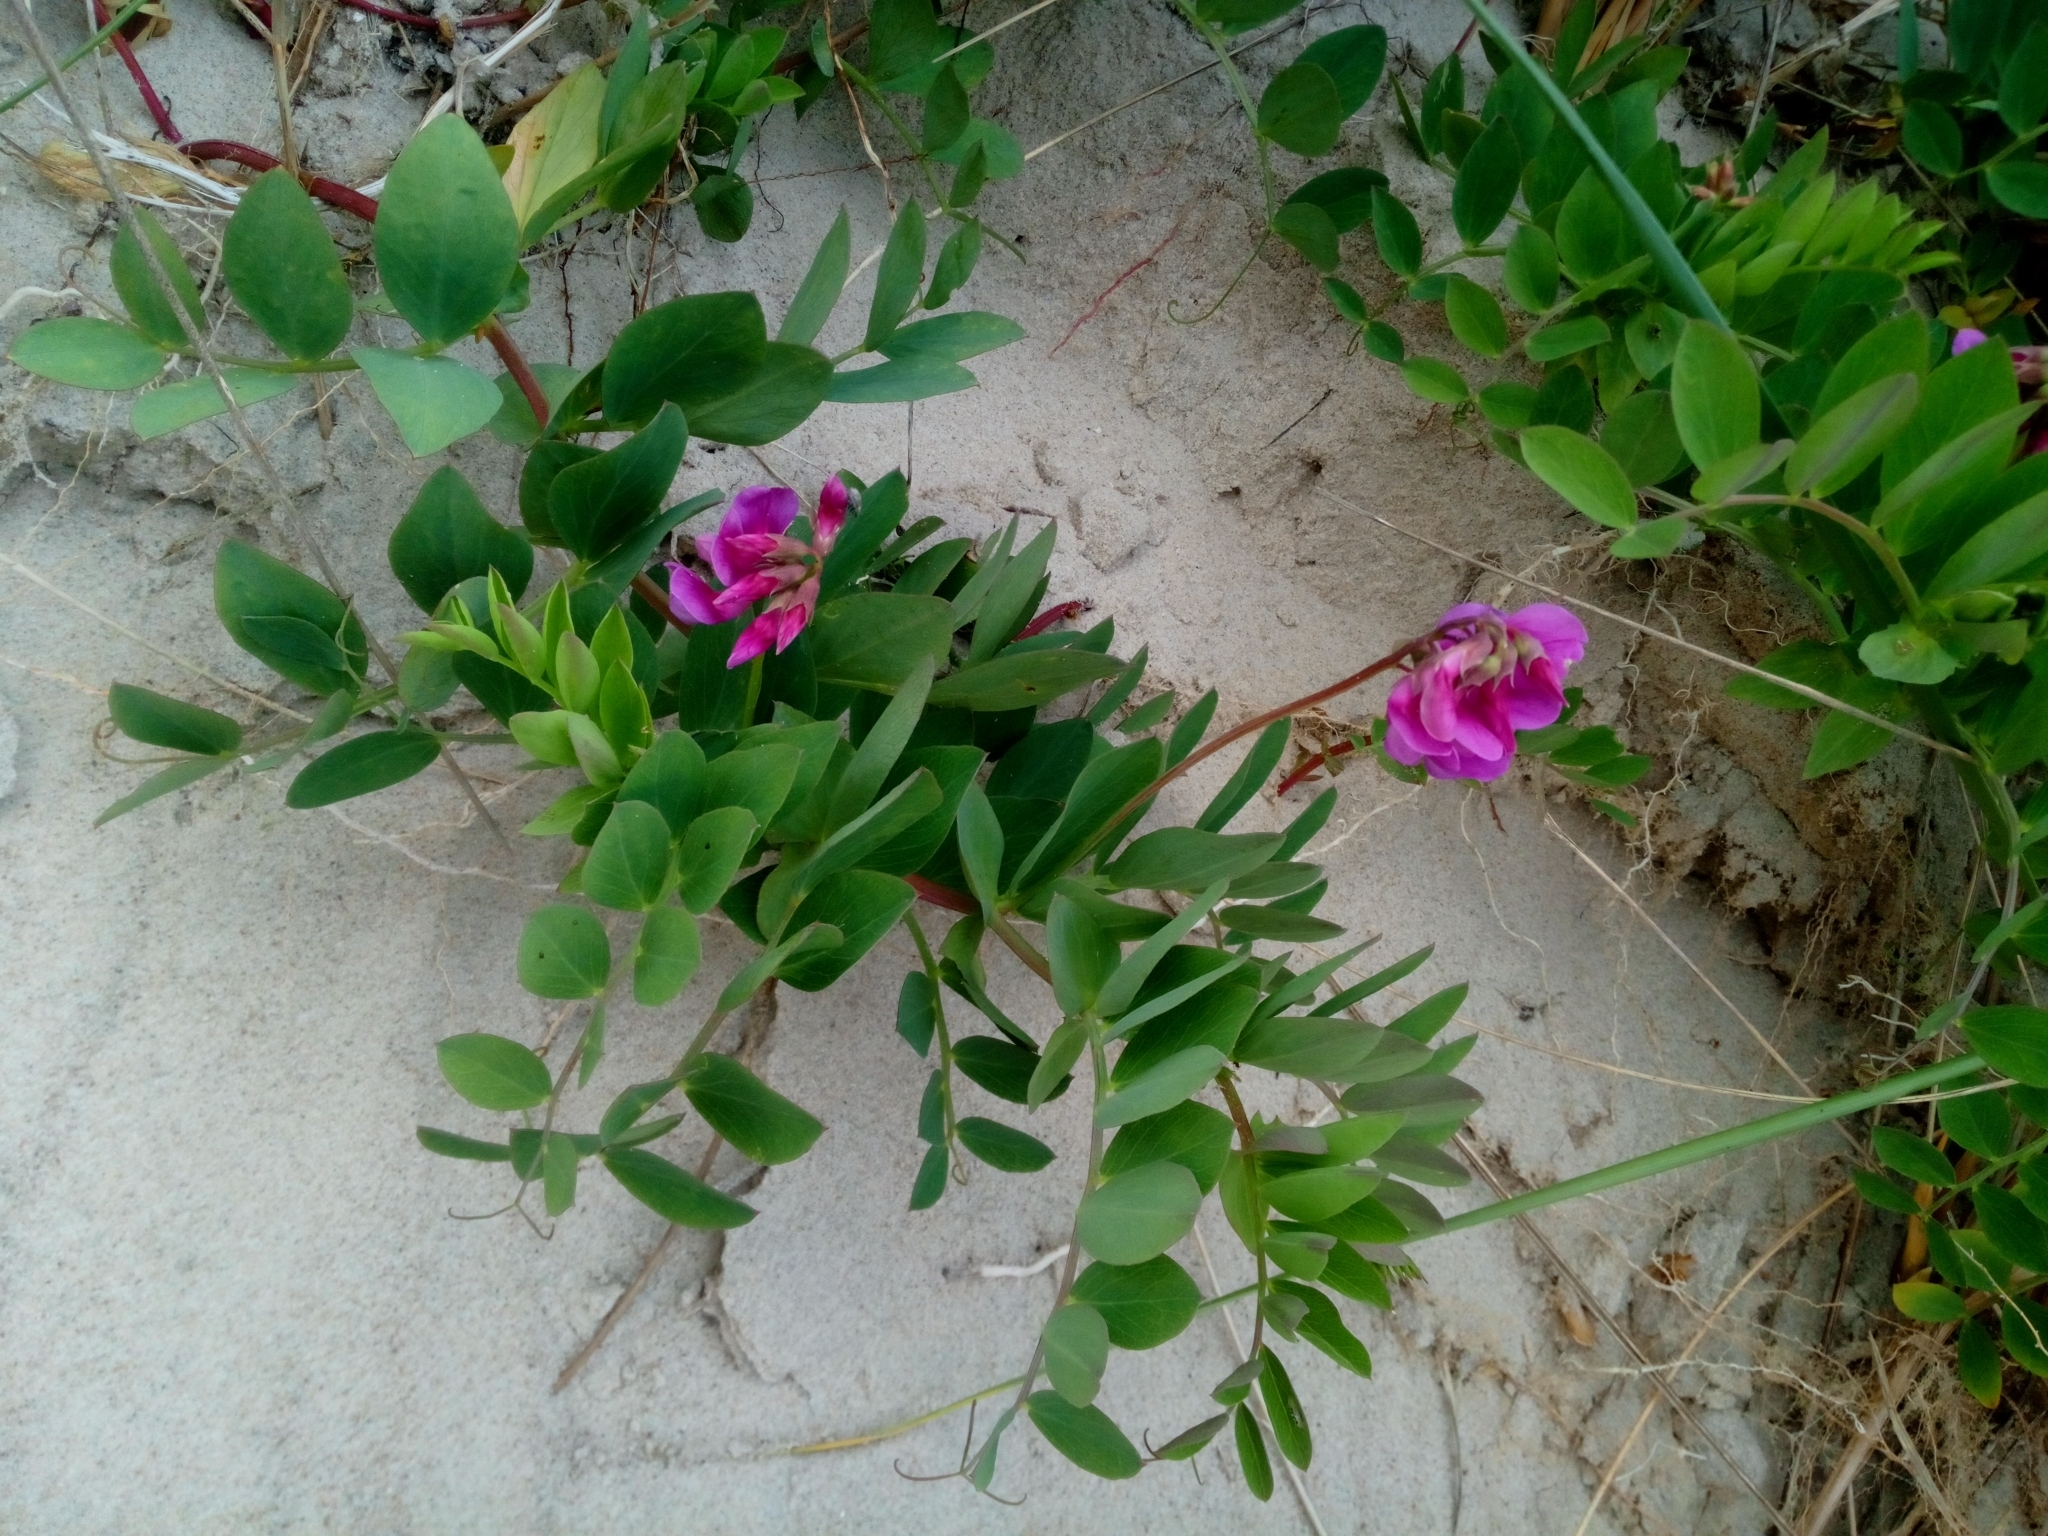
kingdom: Plantae
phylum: Tracheophyta
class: Magnoliopsida
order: Fabales
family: Fabaceae
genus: Lathyrus
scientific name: Lathyrus japonicus
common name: Sea pea
